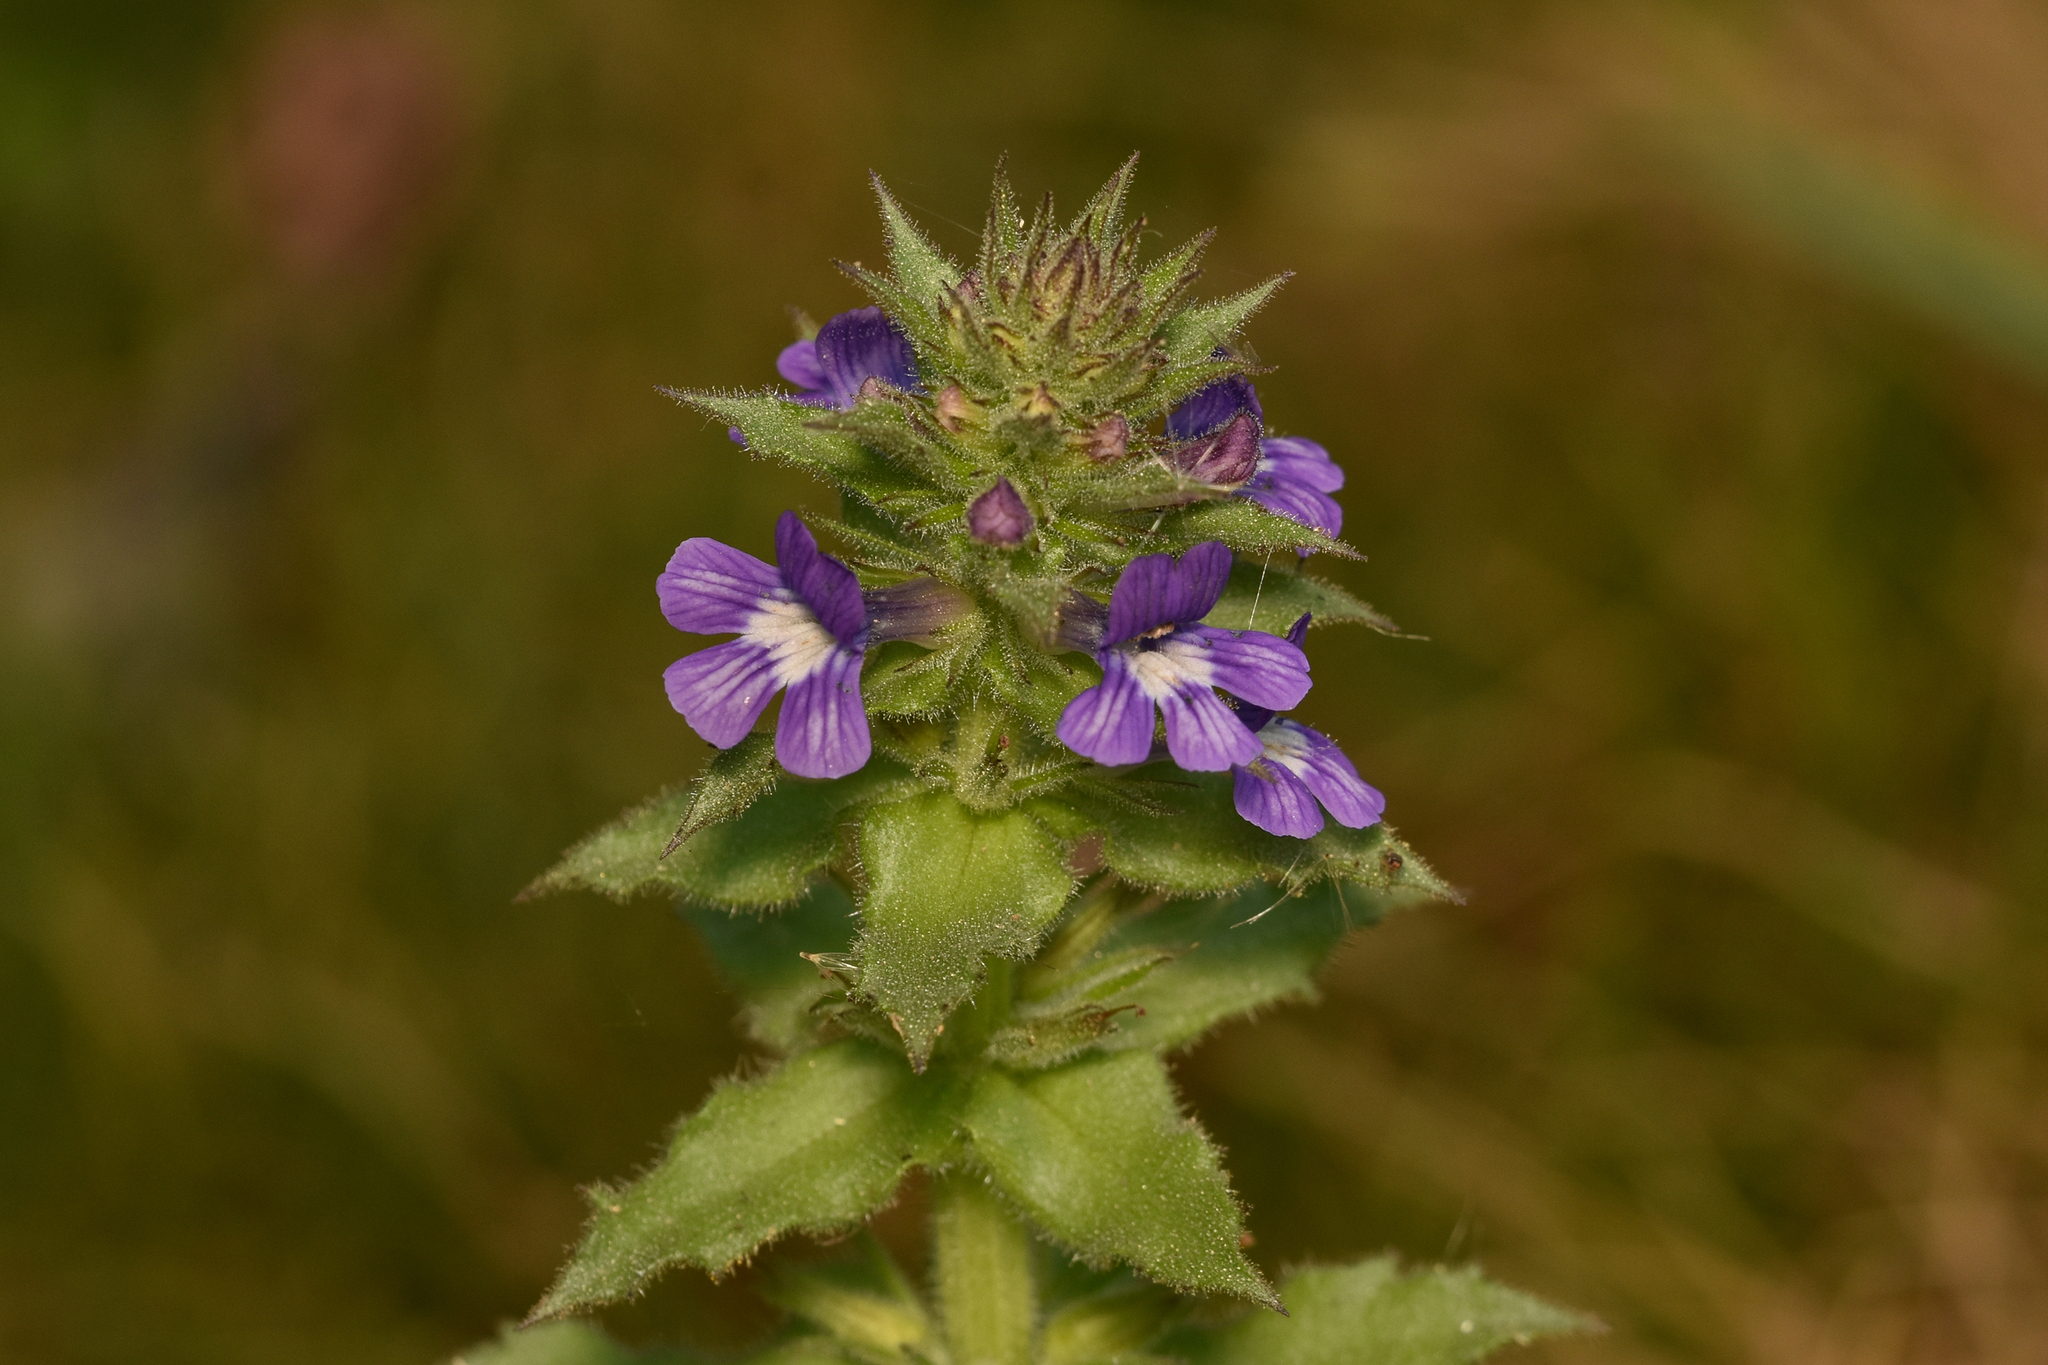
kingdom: Plantae
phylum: Tracheophyta
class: Magnoliopsida
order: Lamiales
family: Plantaginaceae
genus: Stemodia
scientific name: Stemodia durantifolia
